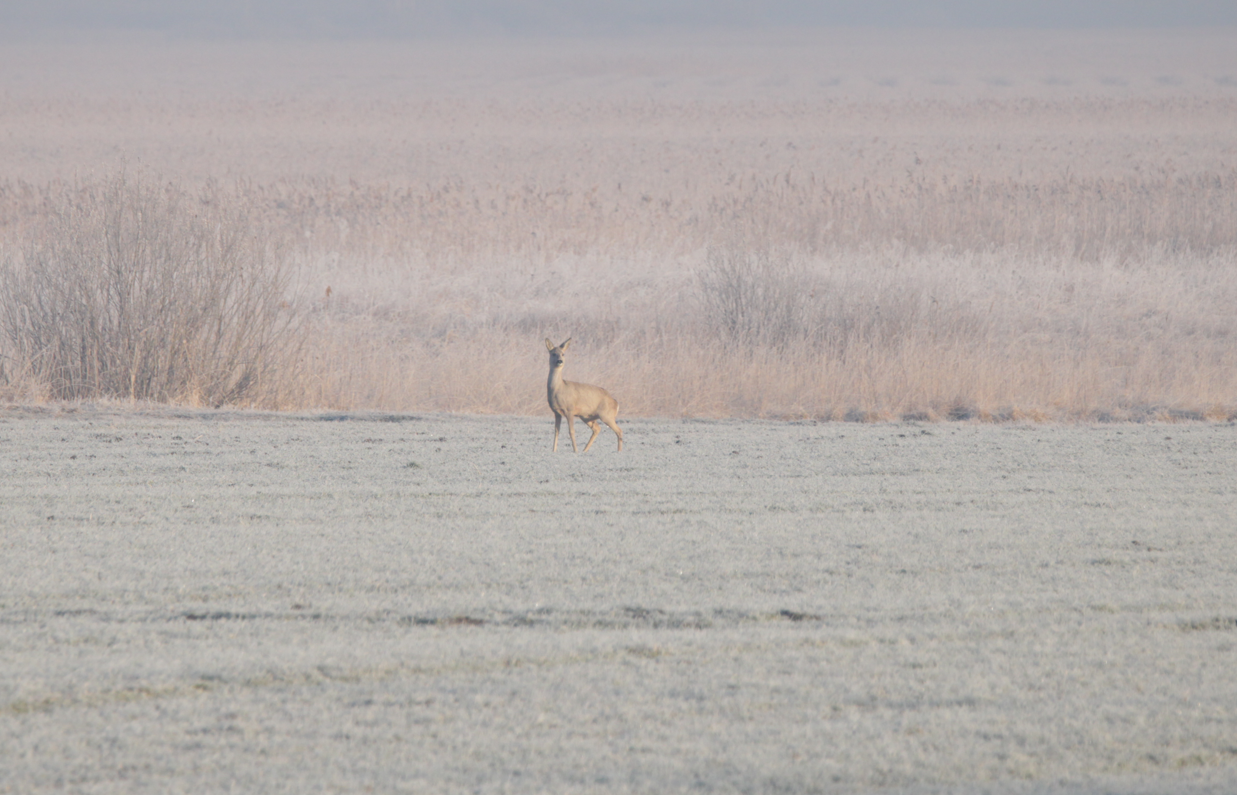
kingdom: Animalia
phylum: Chordata
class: Mammalia
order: Artiodactyla
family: Cervidae
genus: Capreolus
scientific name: Capreolus capreolus
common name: Western roe deer
